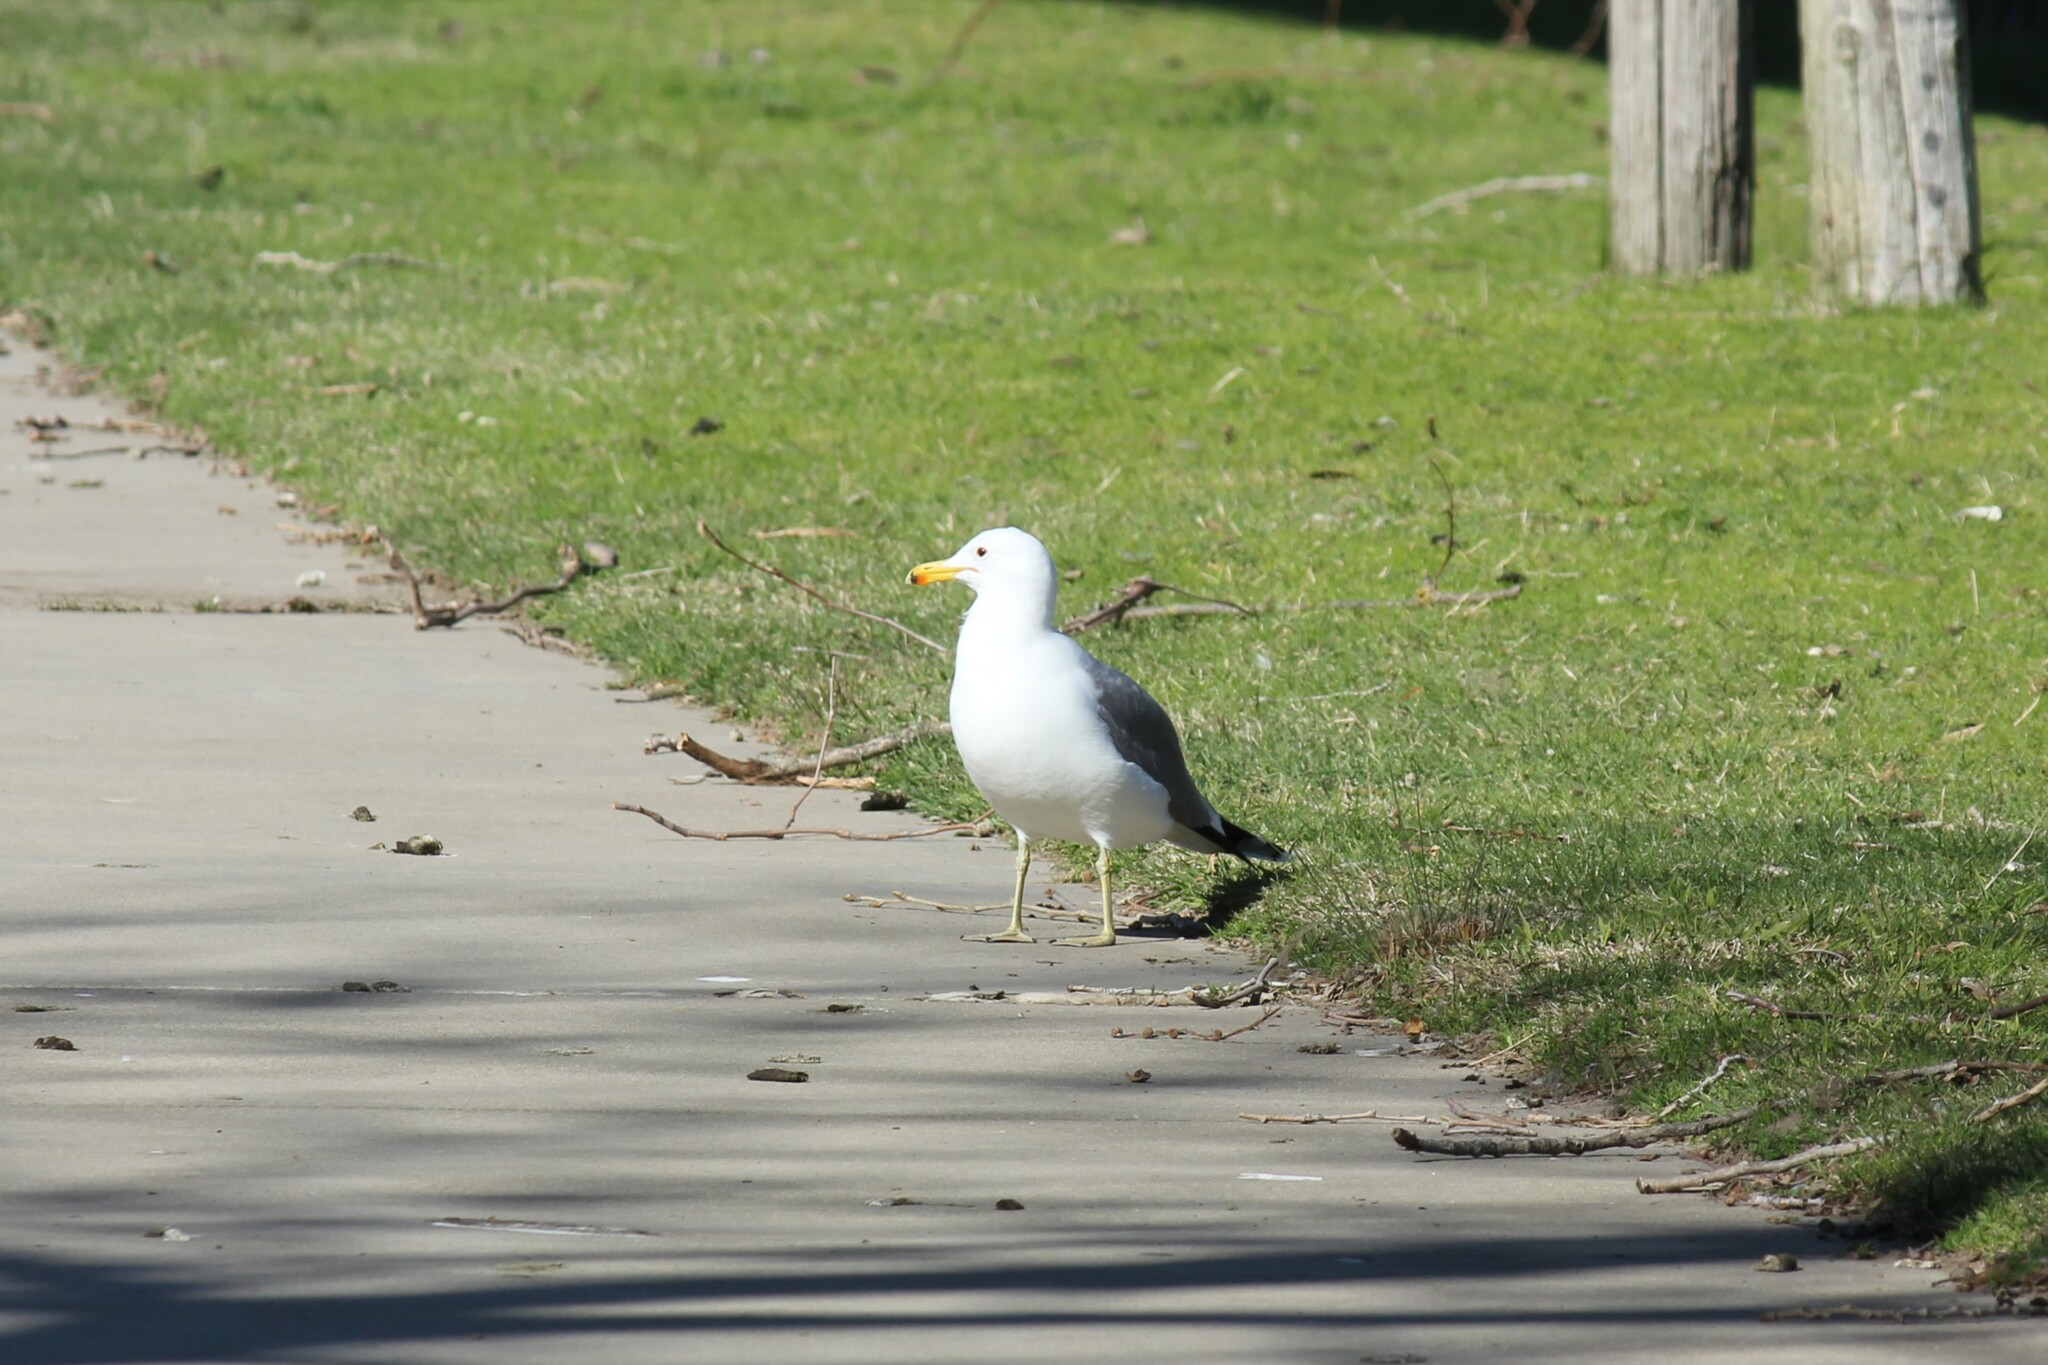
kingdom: Animalia
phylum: Chordata
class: Aves
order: Charadriiformes
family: Laridae
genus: Larus
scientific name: Larus californicus
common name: California gull
